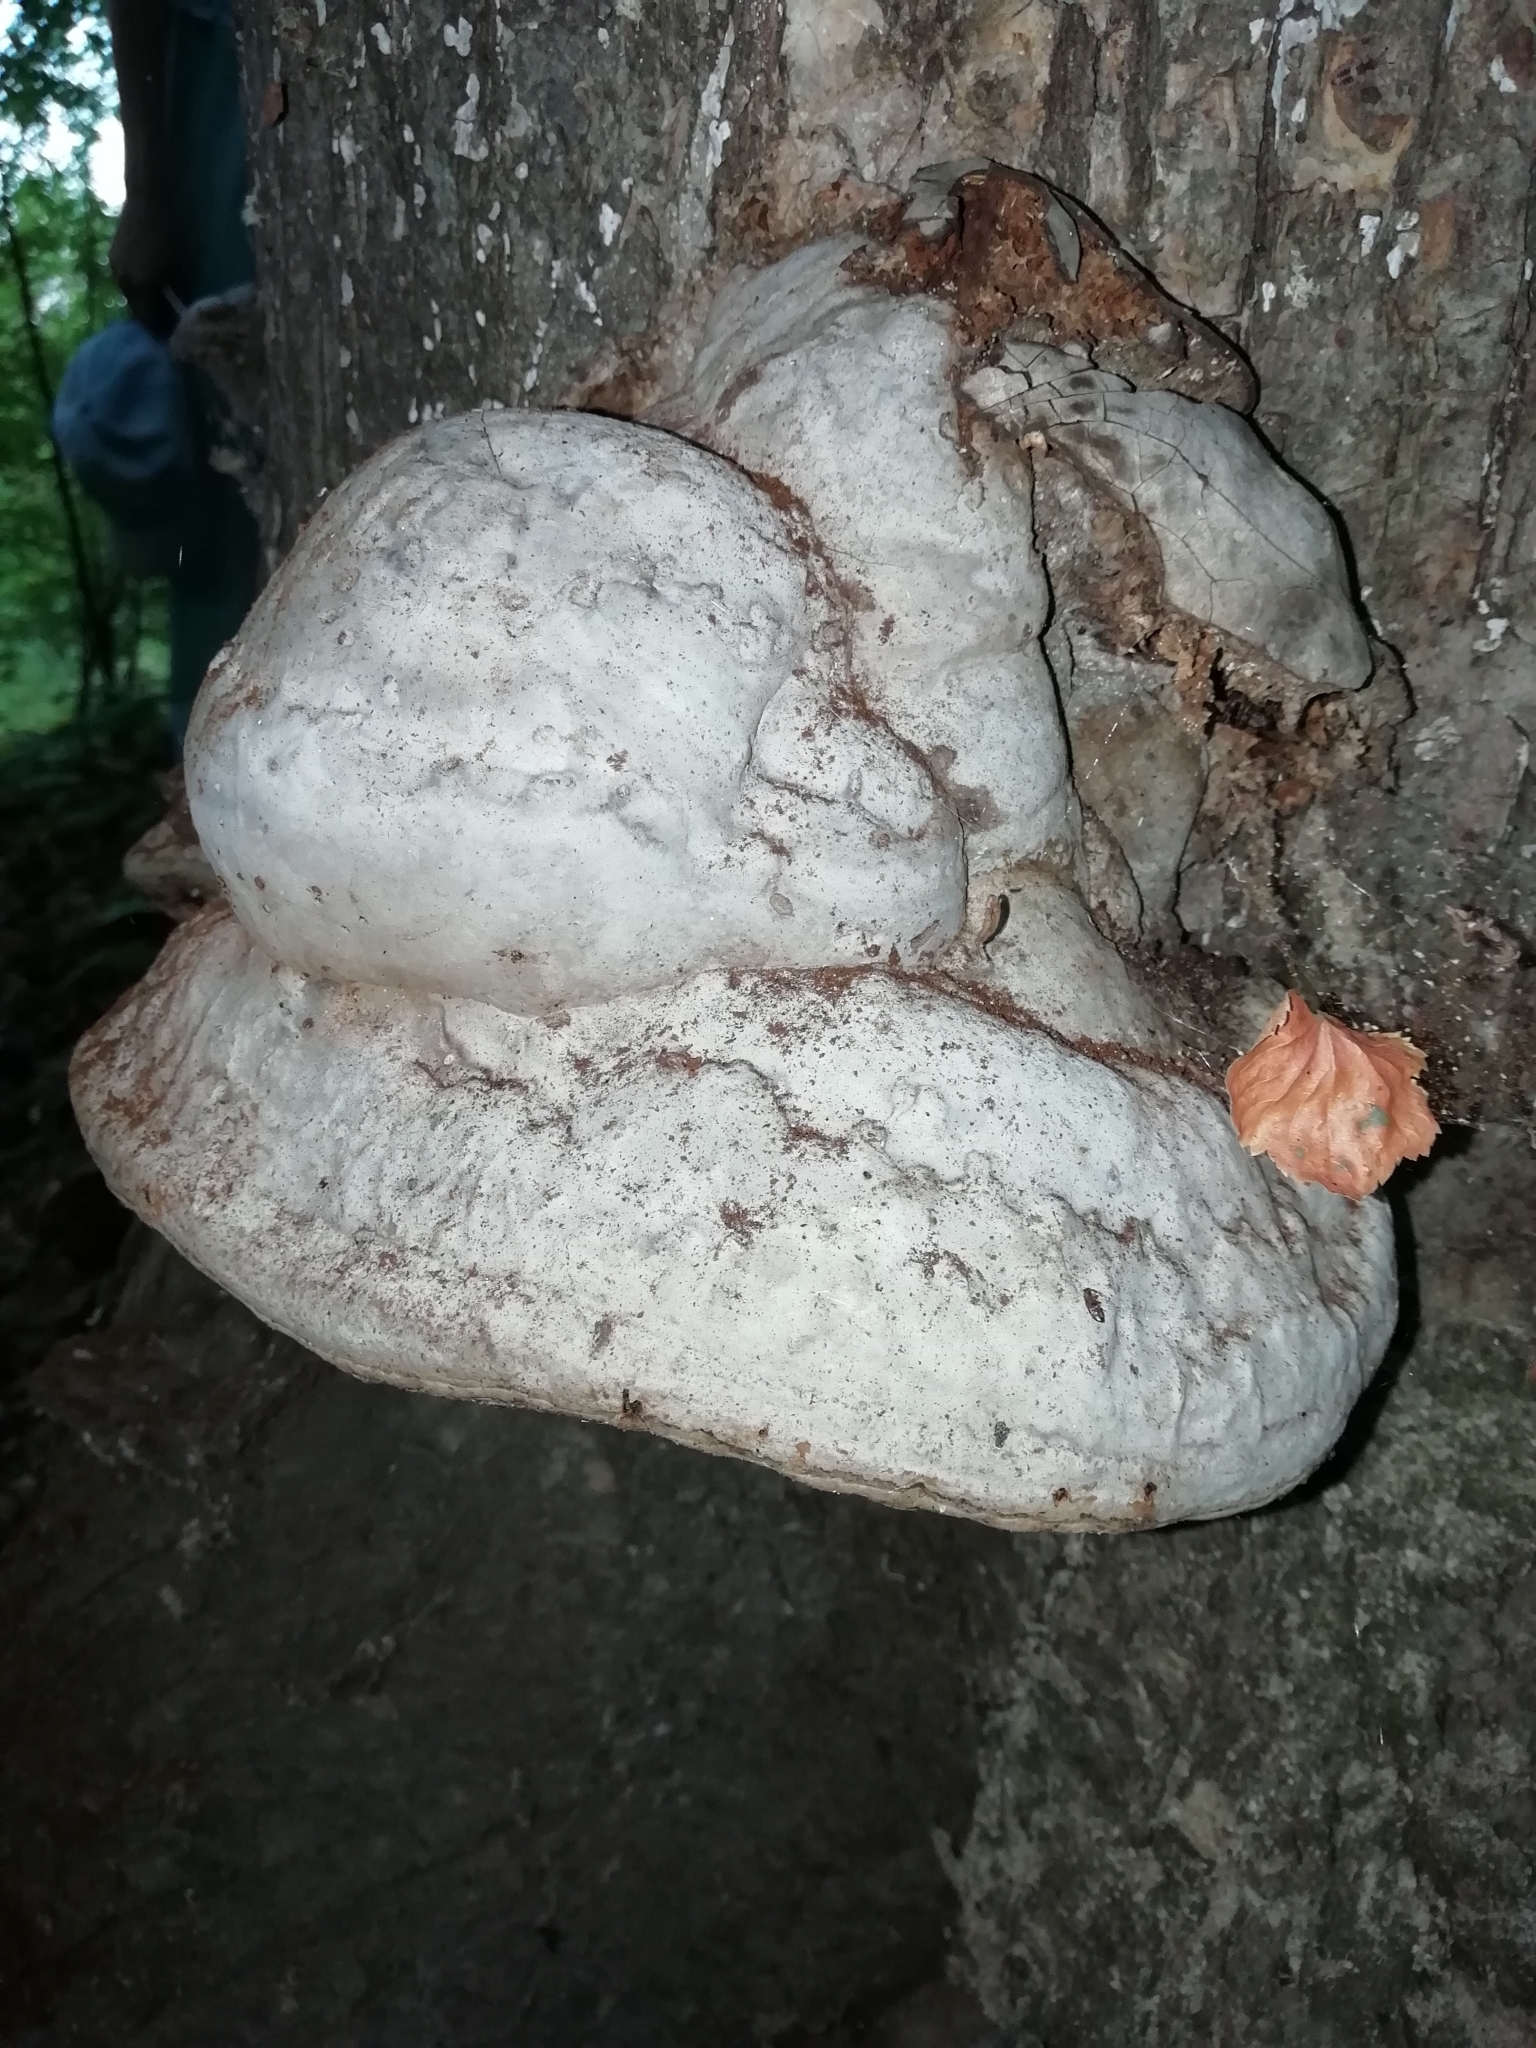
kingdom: Fungi
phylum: Basidiomycota
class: Agaricomycetes
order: Polyporales
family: Polyporaceae
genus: Fomes
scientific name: Fomes fomentarius
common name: Hoof fungus
